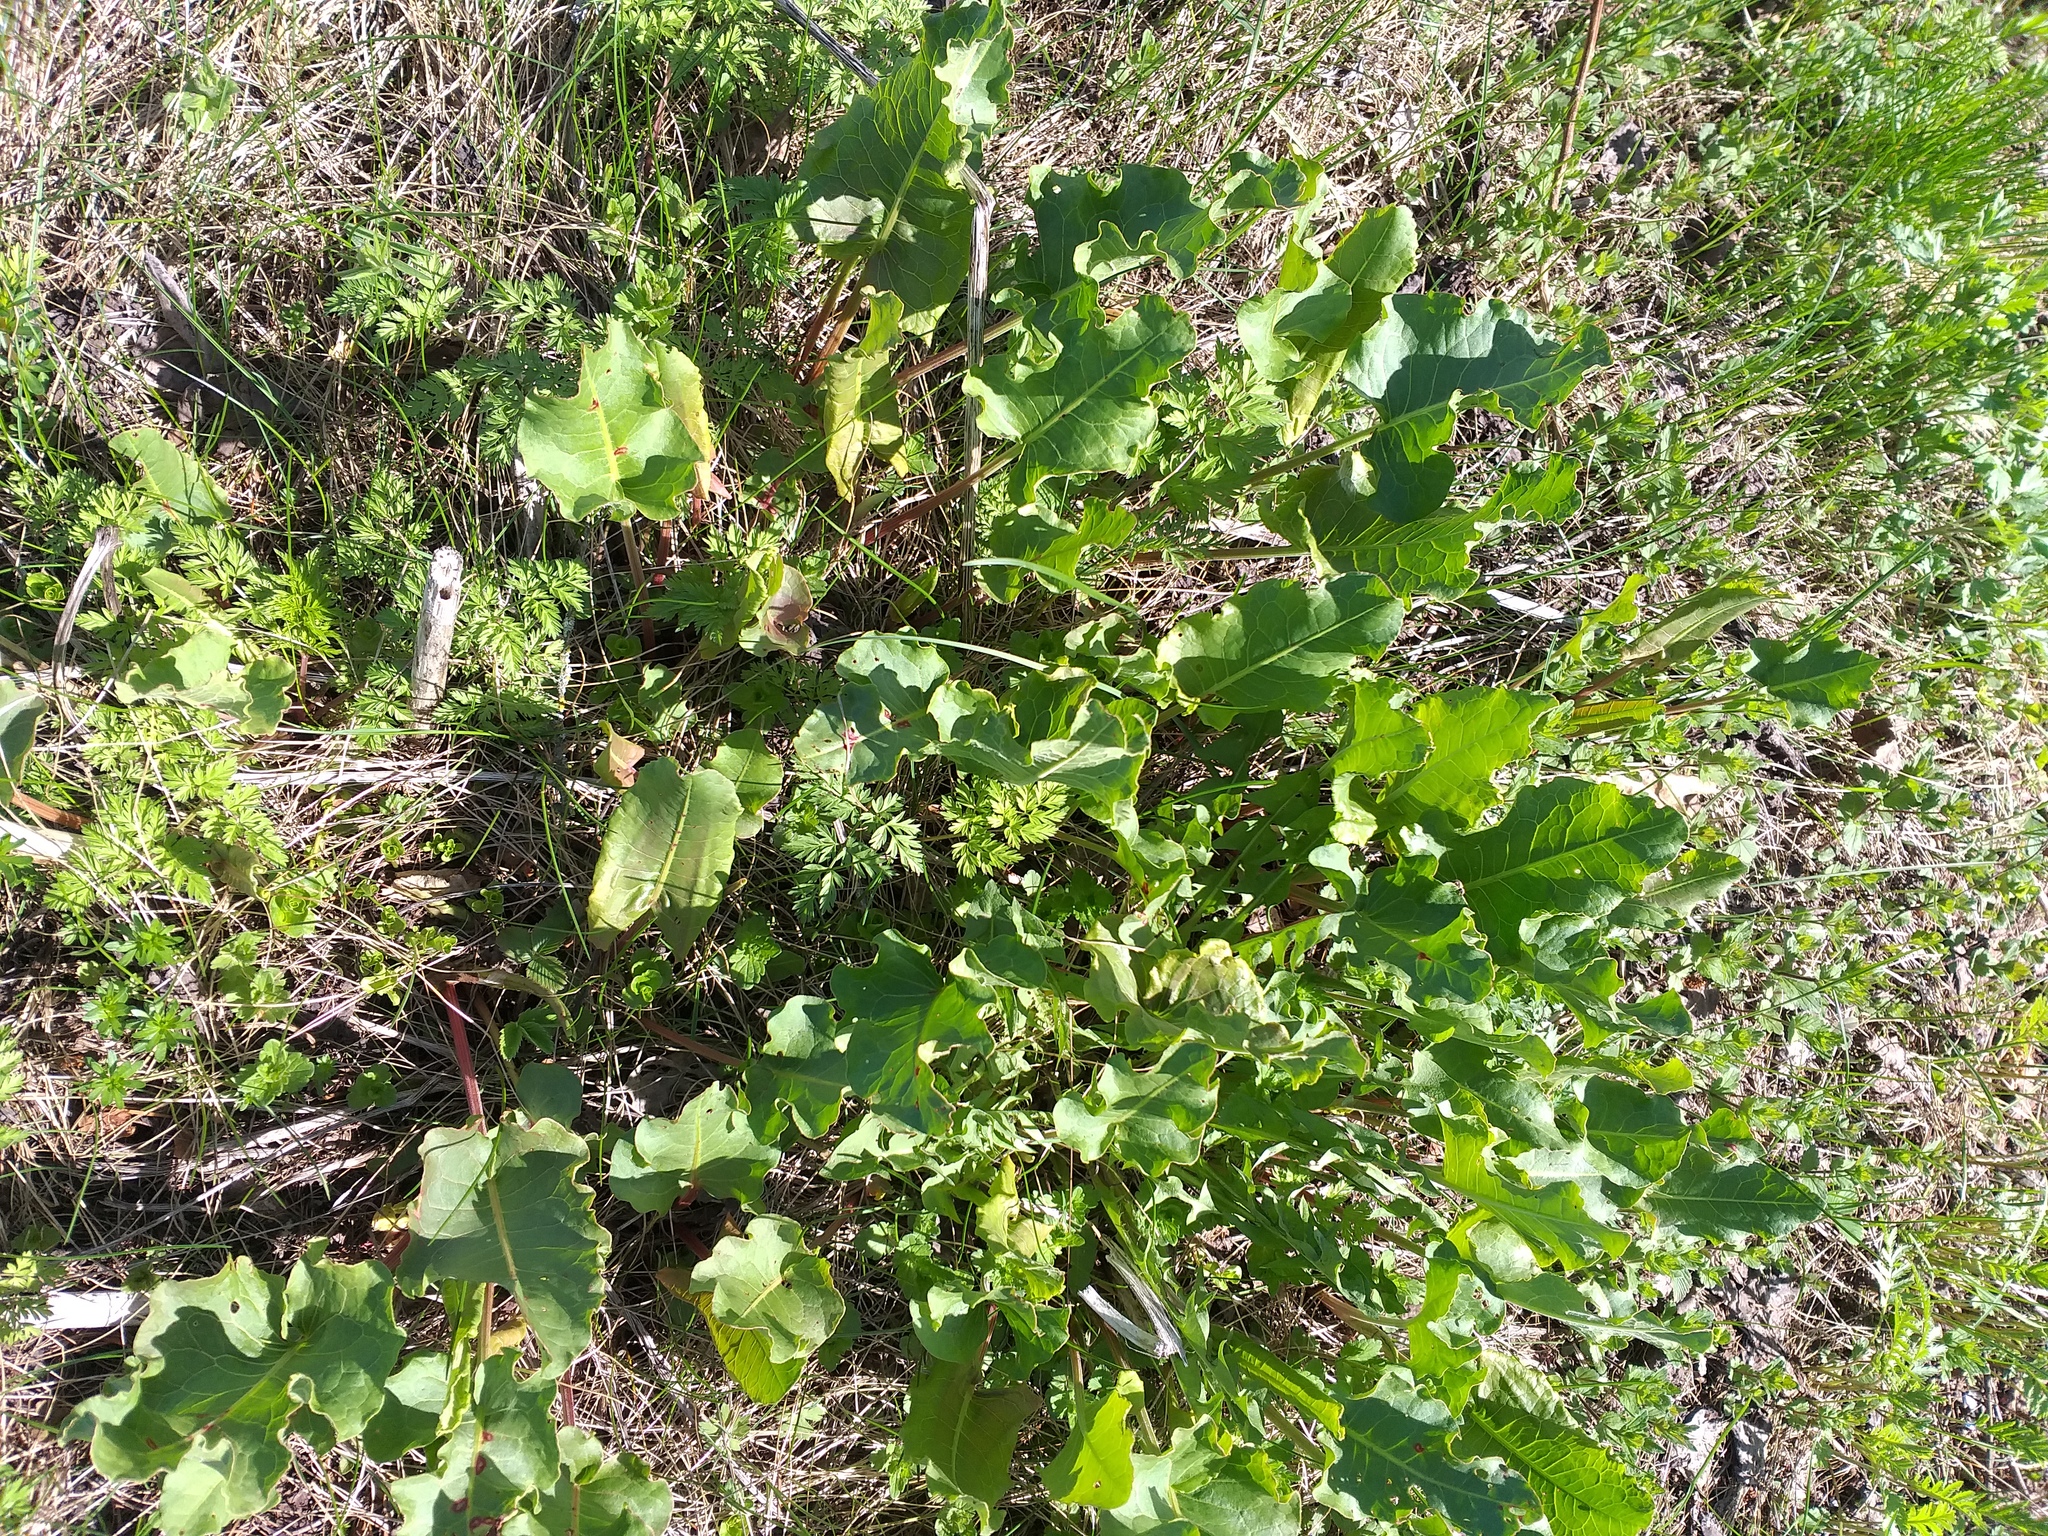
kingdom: Plantae
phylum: Tracheophyta
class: Magnoliopsida
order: Caryophyllales
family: Polygonaceae
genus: Rumex
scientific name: Rumex confertus
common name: Russian dock
